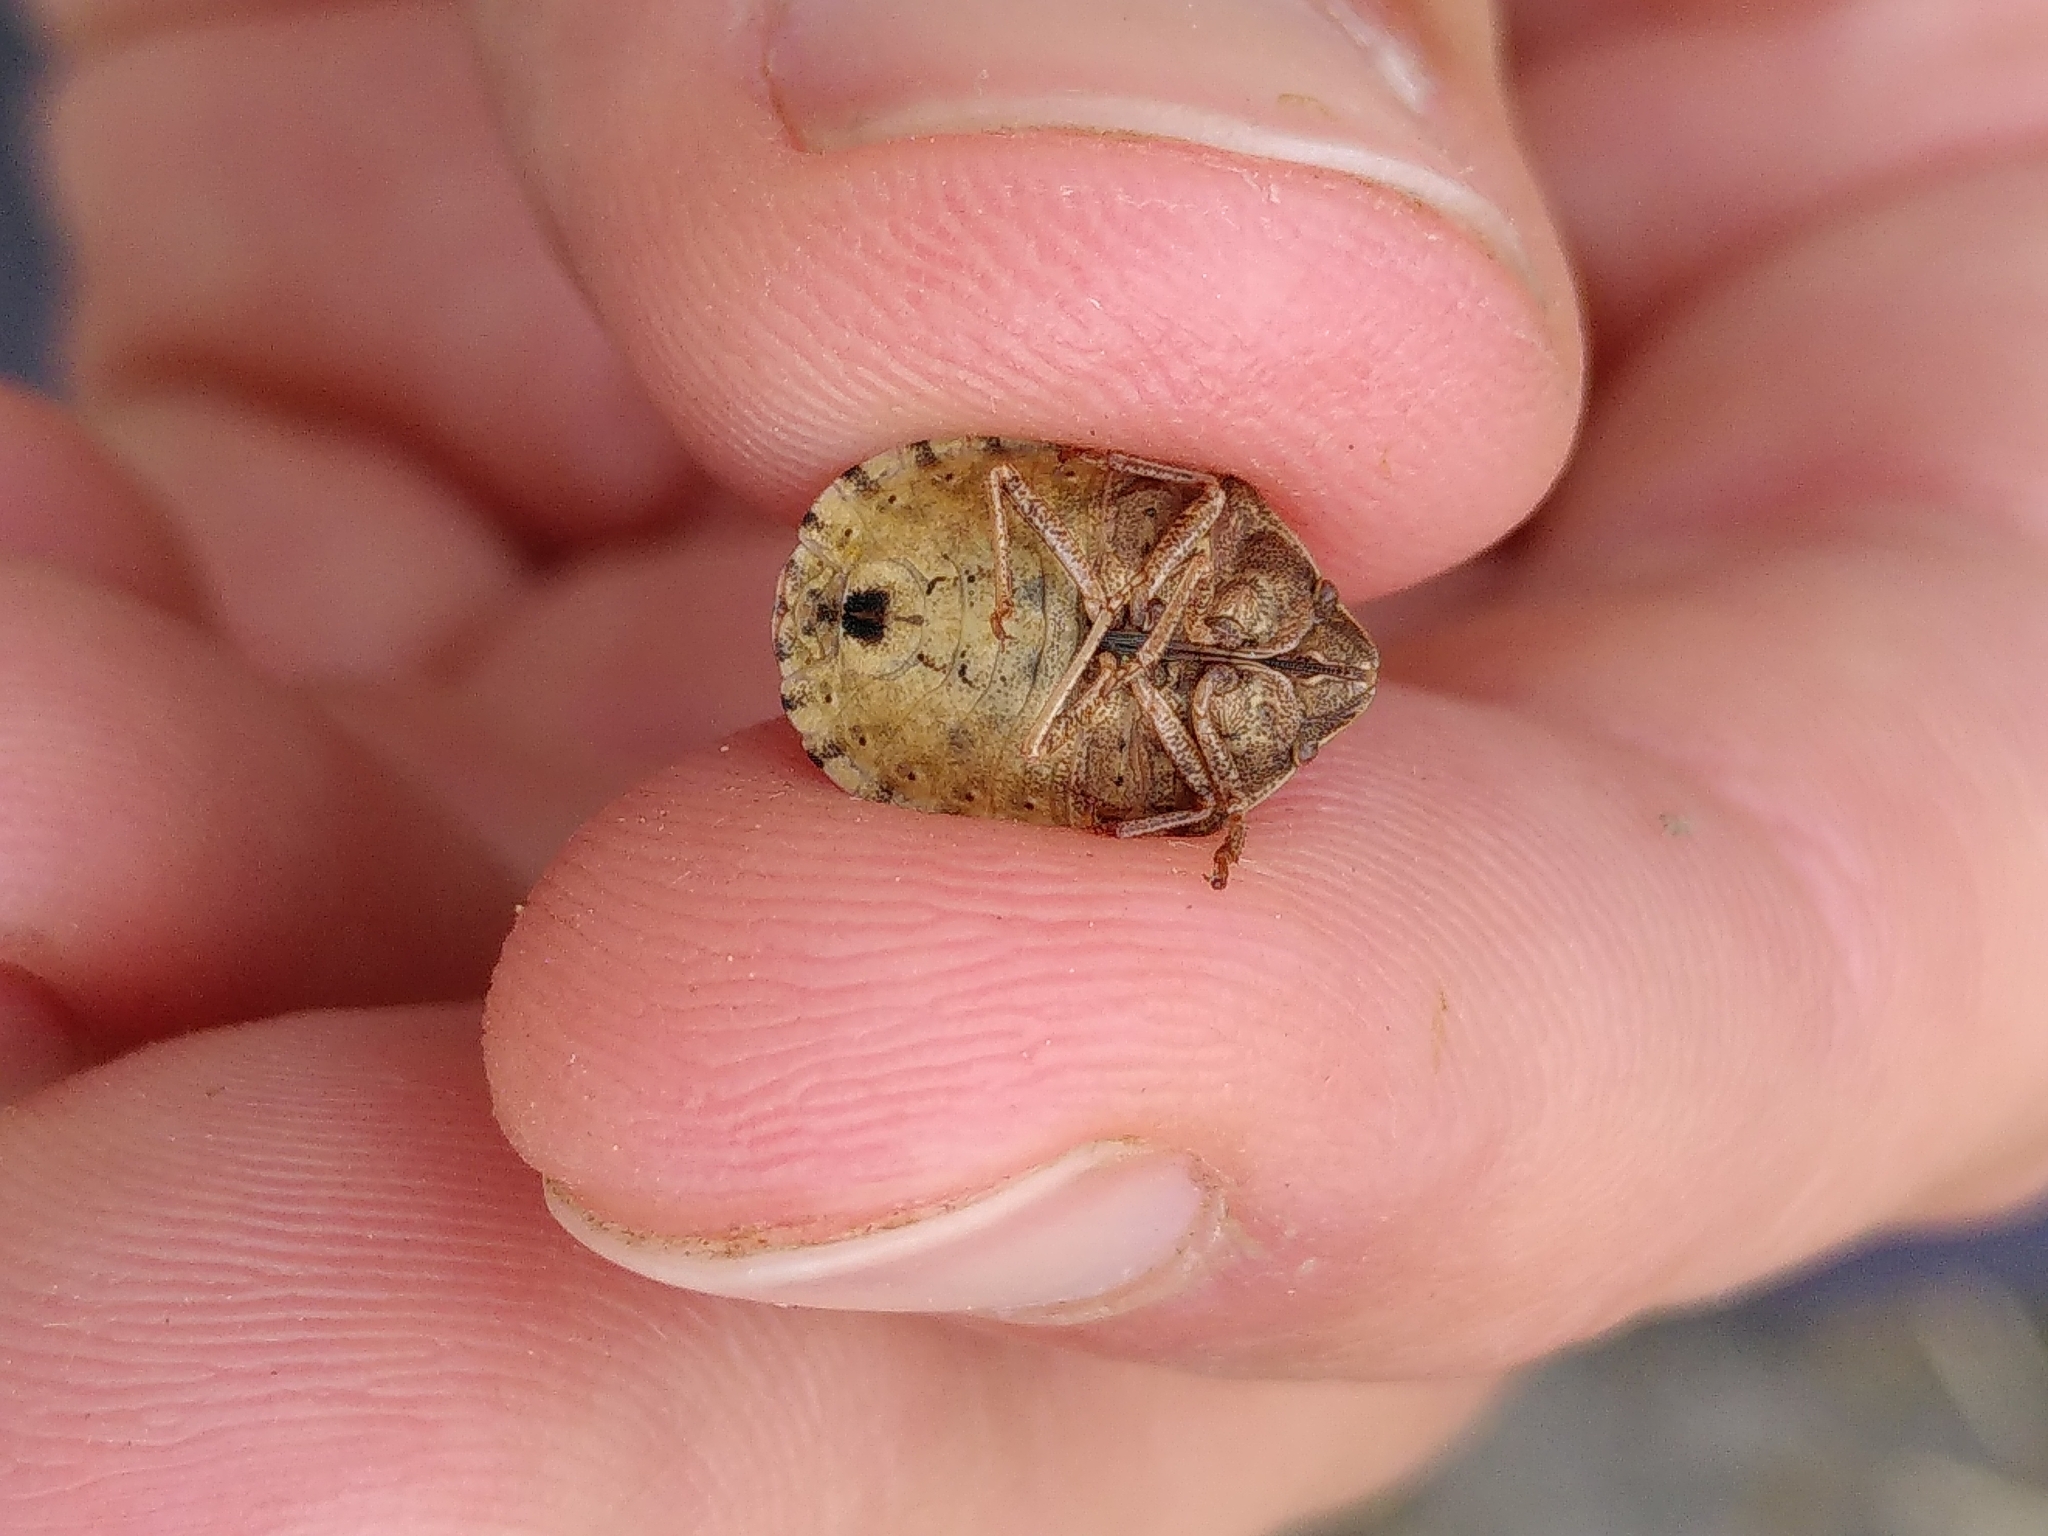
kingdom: Animalia
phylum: Arthropoda
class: Insecta
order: Hemiptera
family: Scutelleridae
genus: Eurygaster
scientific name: Eurygaster maura
